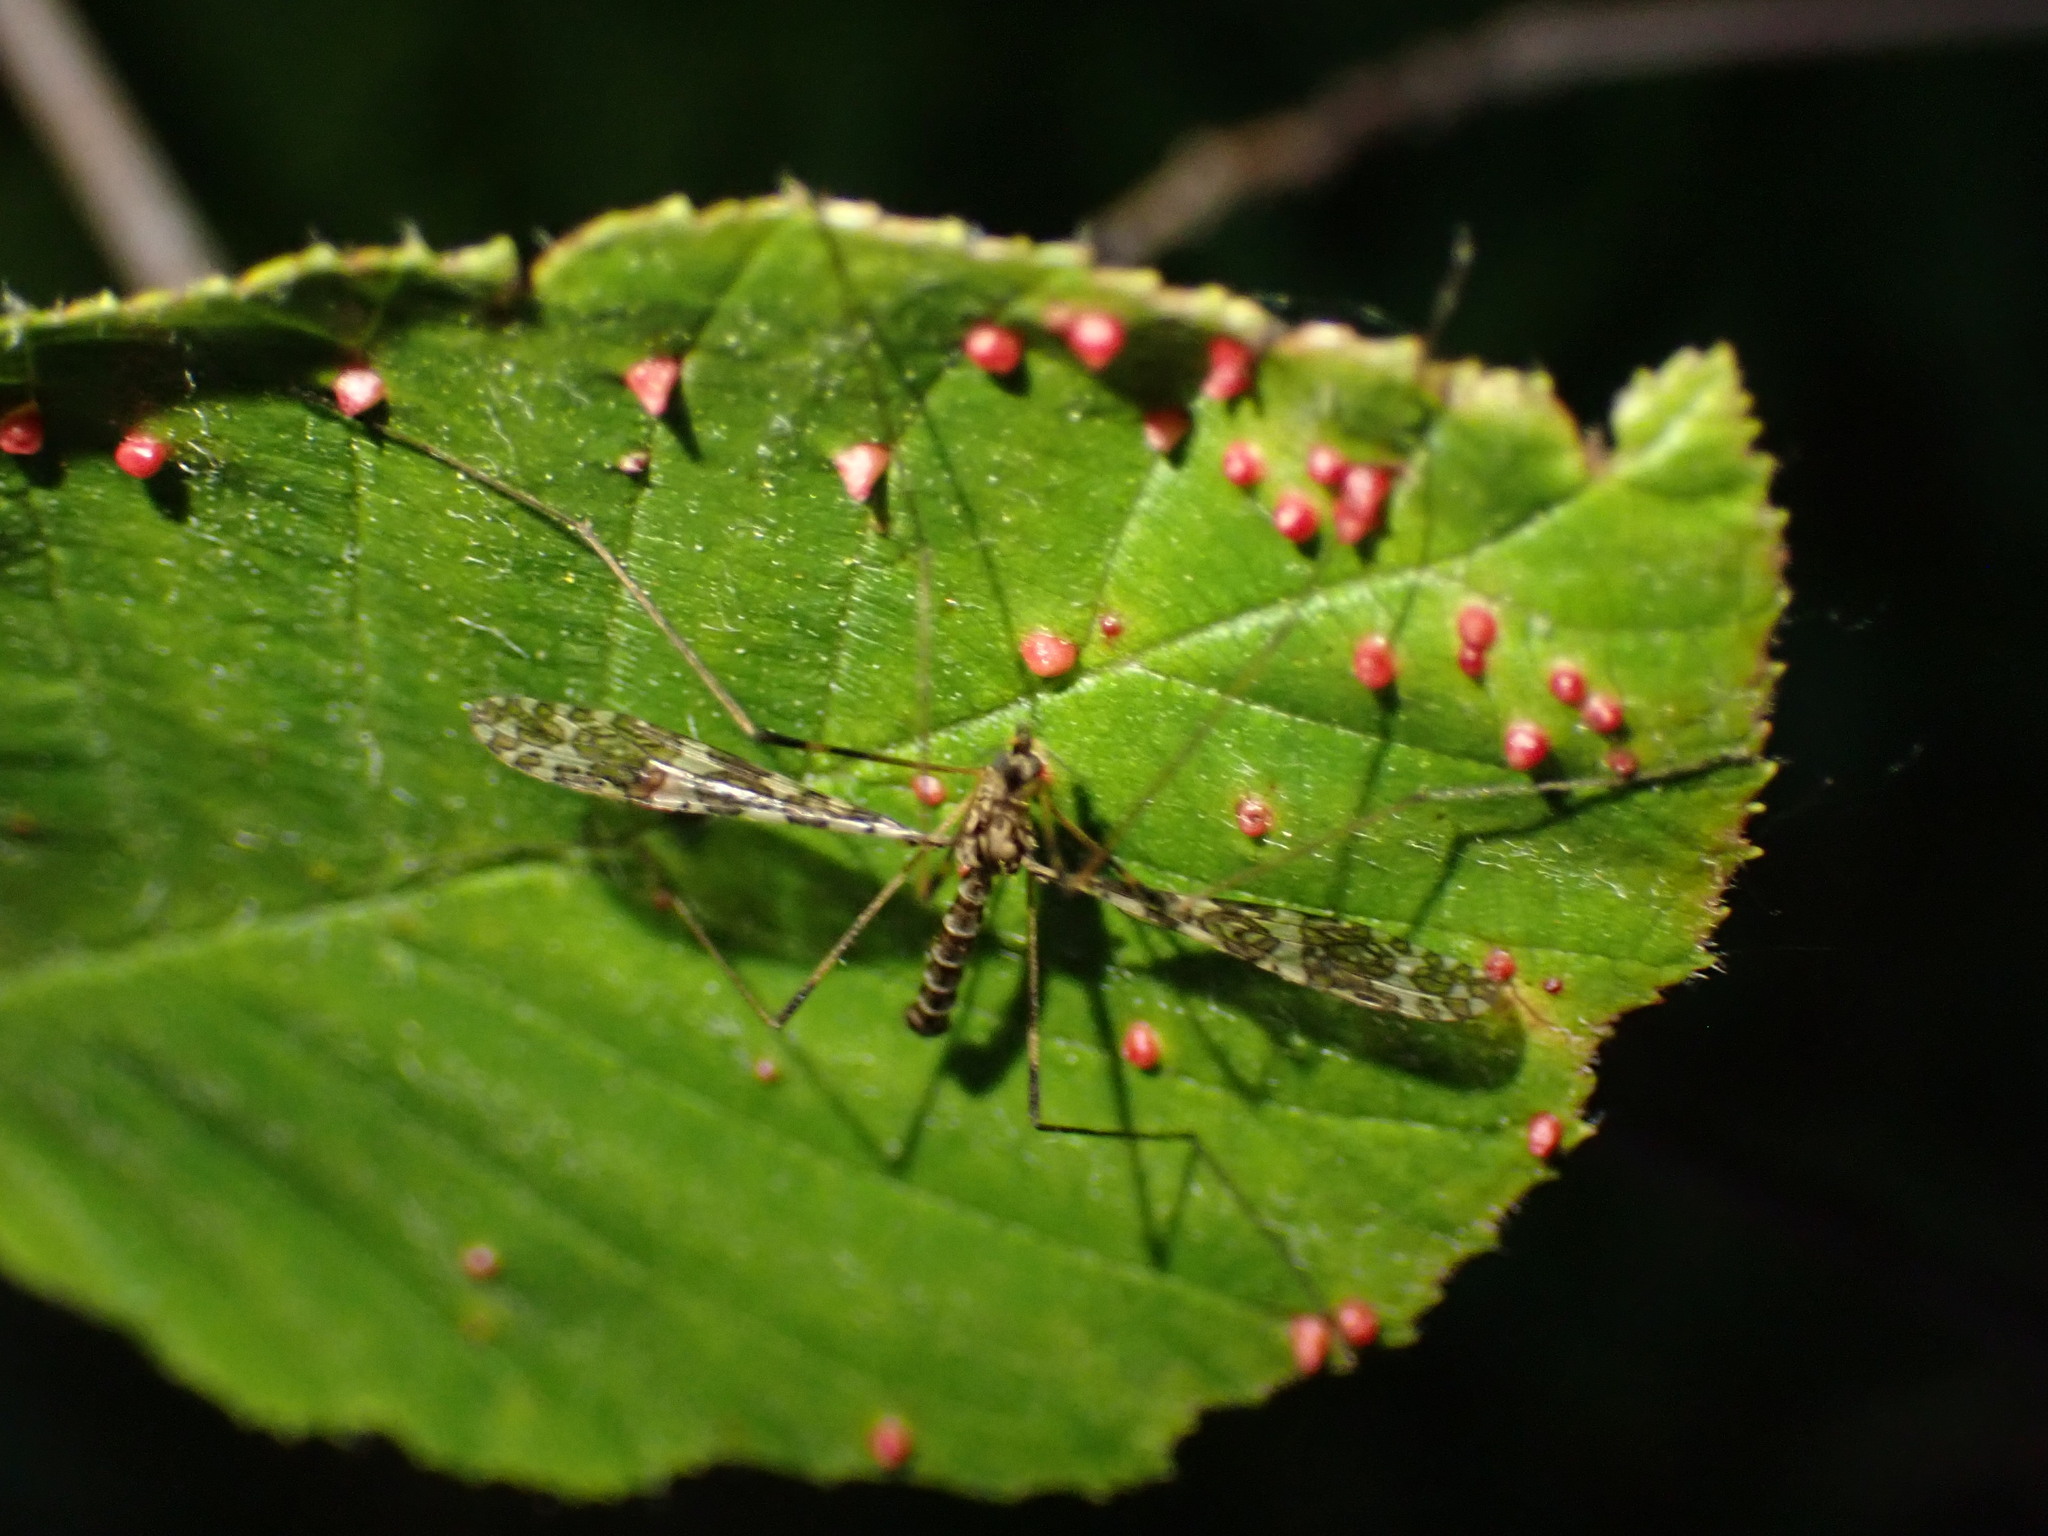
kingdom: Animalia
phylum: Arthropoda
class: Insecta
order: Diptera
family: Limoniidae
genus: Epiphragma
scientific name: Epiphragma fasciapenne
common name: Band-winged crane fly
